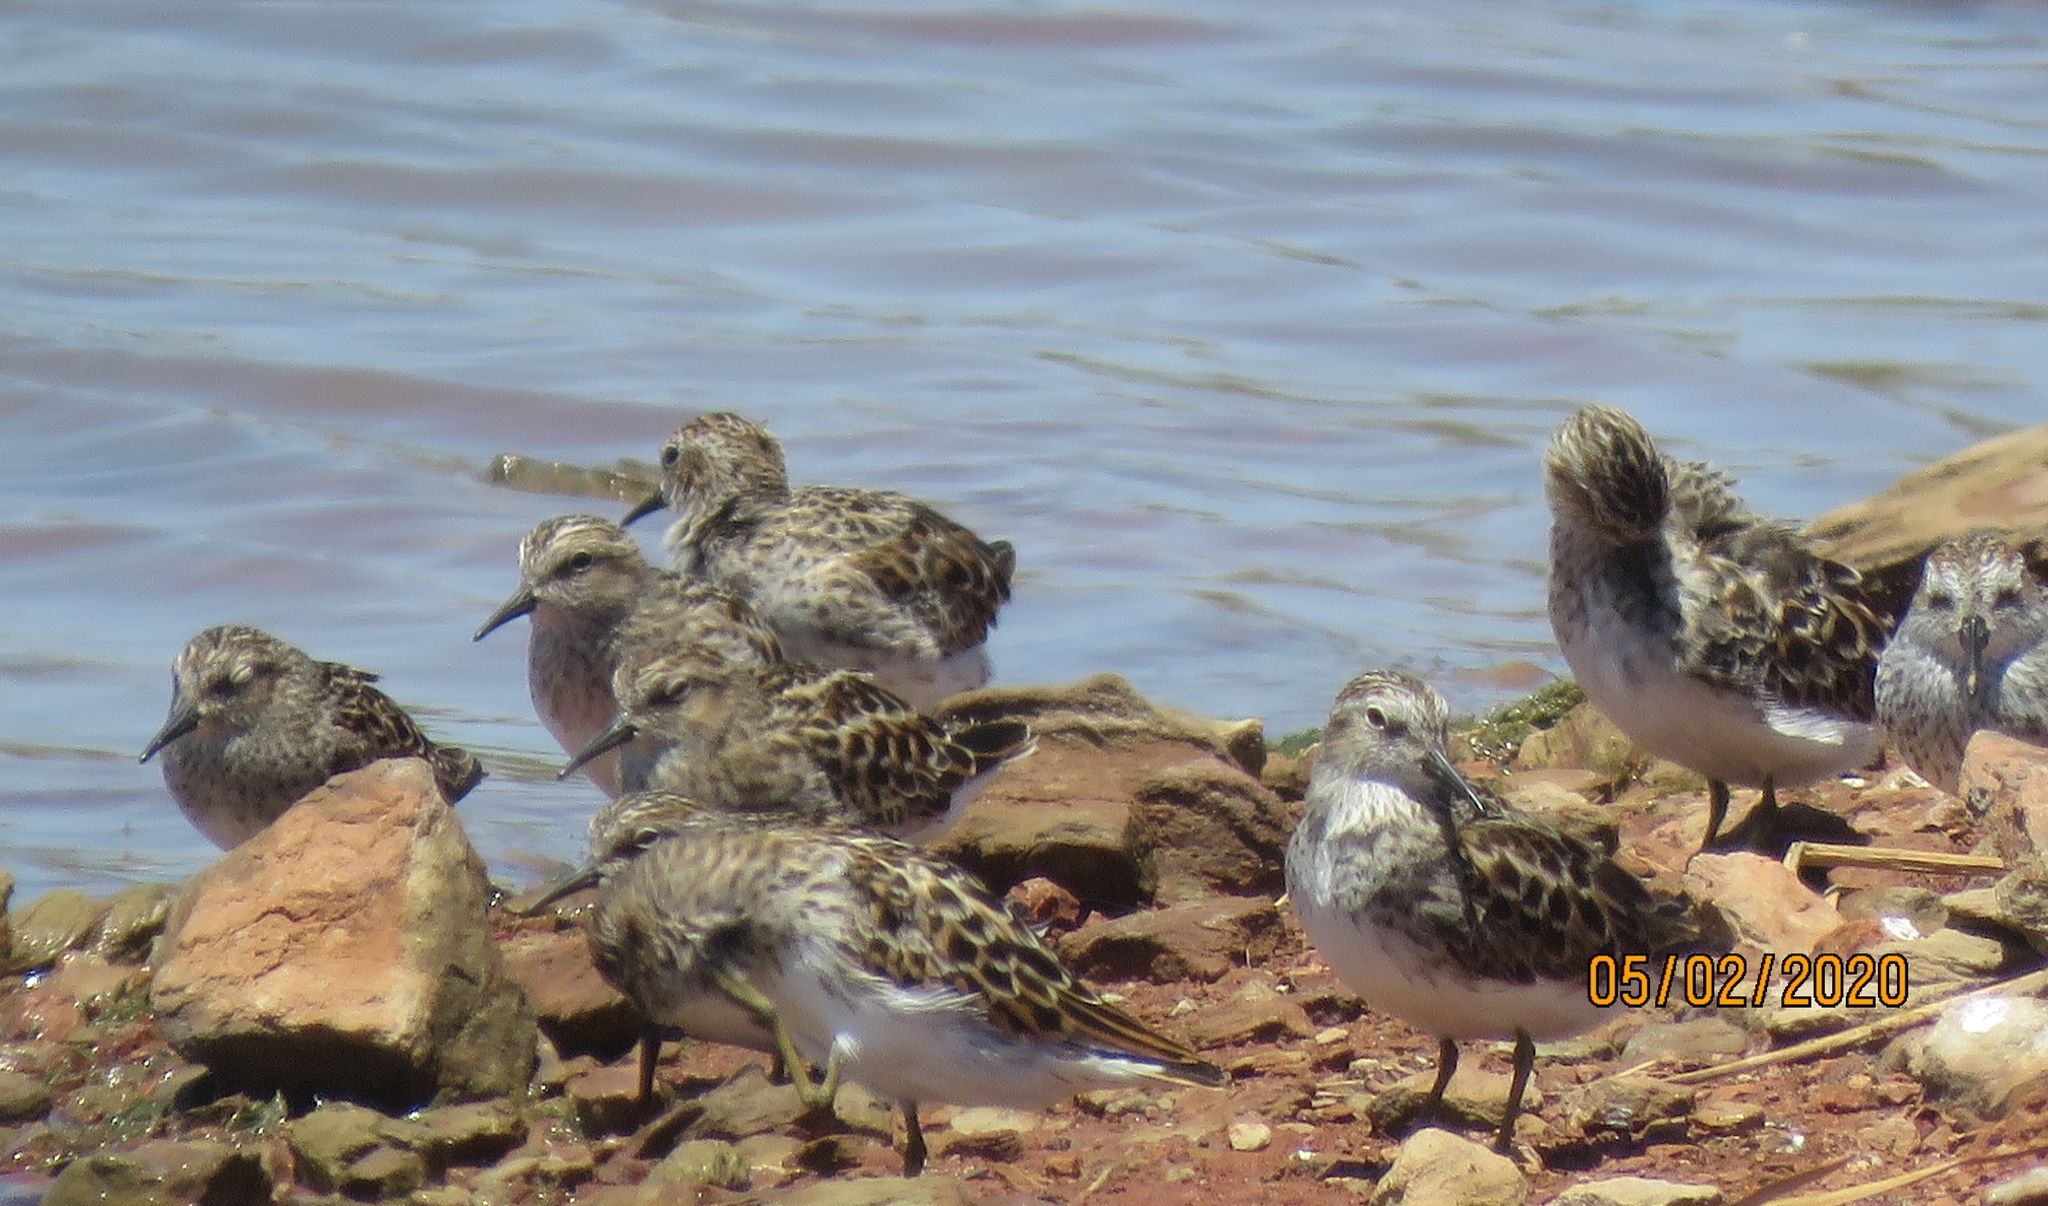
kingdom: Animalia
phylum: Chordata
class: Aves
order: Charadriiformes
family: Scolopacidae
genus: Calidris
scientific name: Calidris minutilla
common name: Least sandpiper
